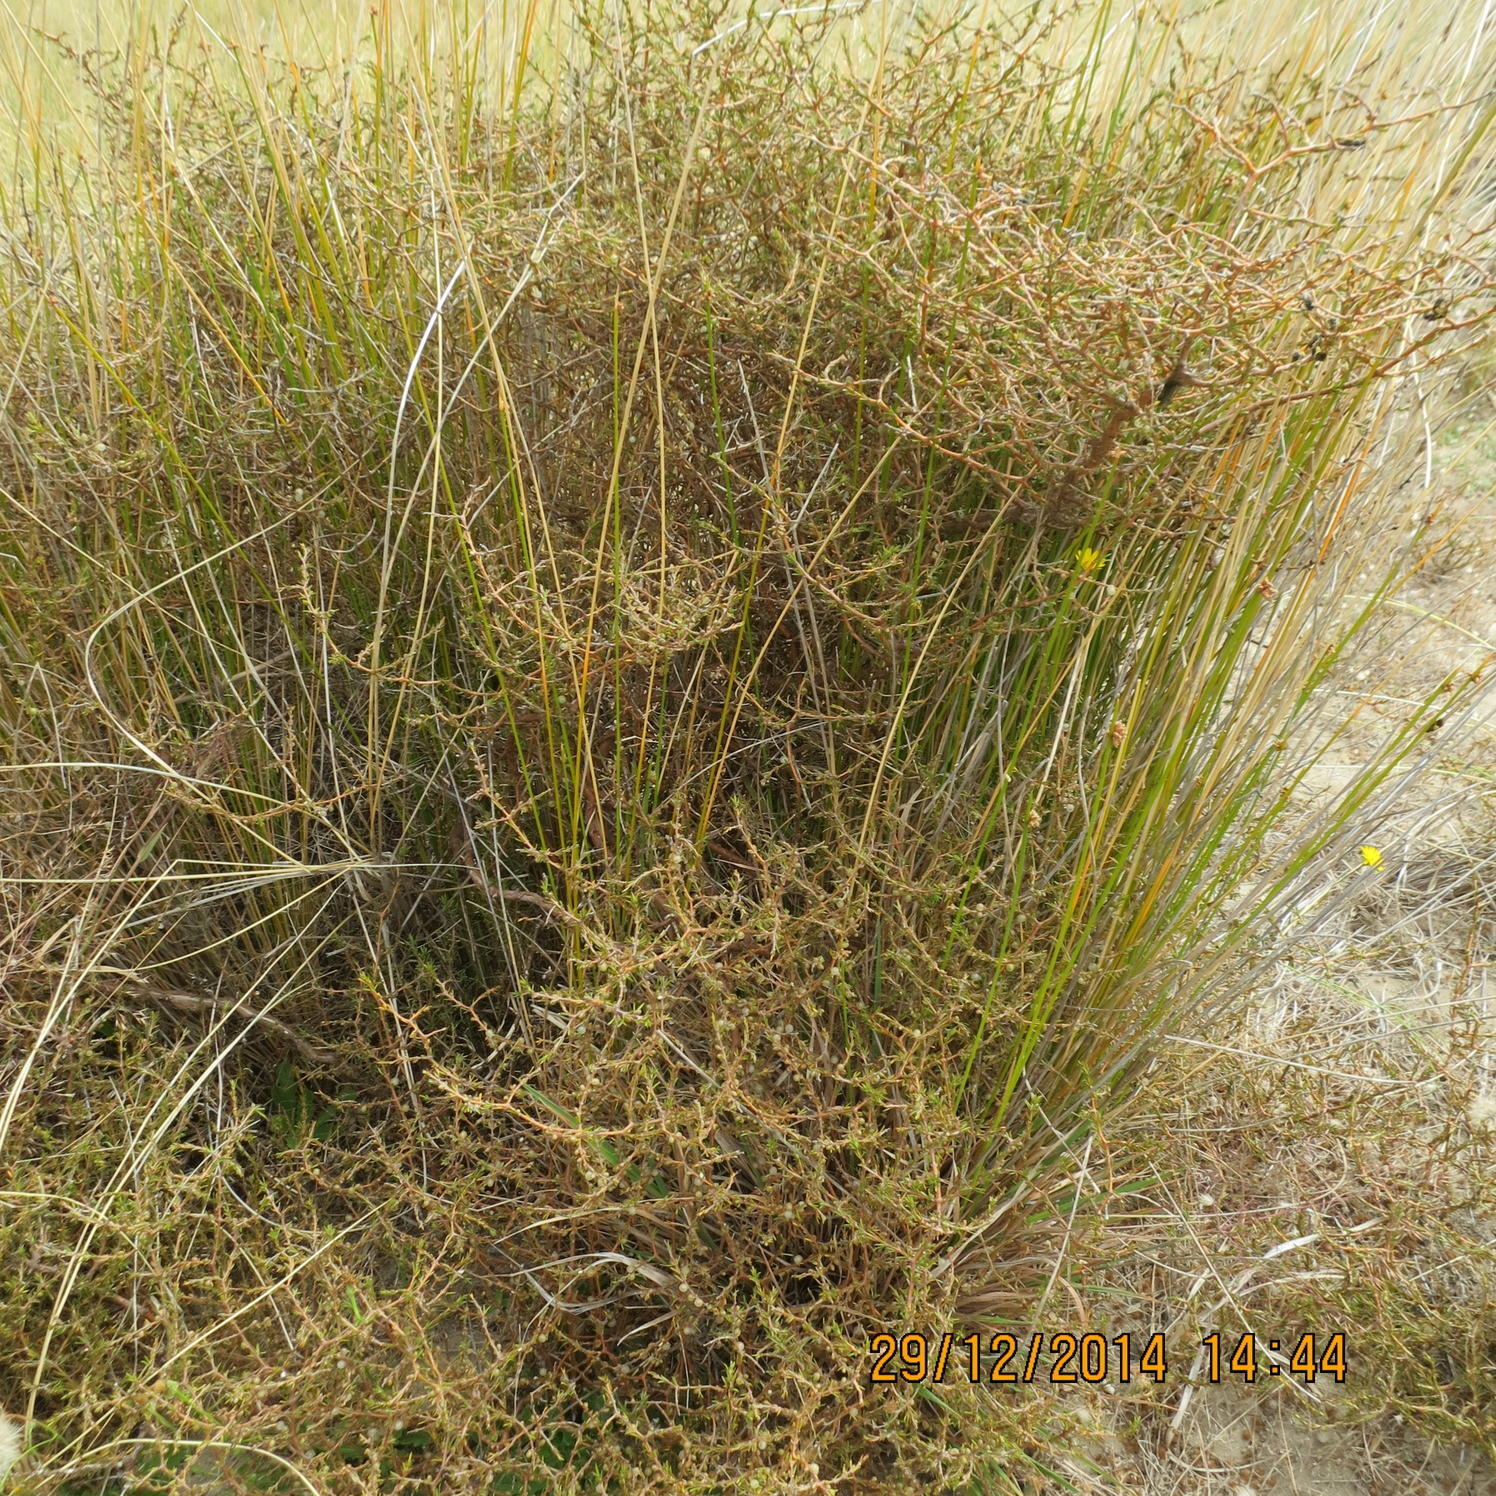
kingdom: Plantae
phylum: Tracheophyta
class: Magnoliopsida
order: Gentianales
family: Rubiaceae
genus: Coprosma
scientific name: Coprosma acerosa
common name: Sand coprosma
